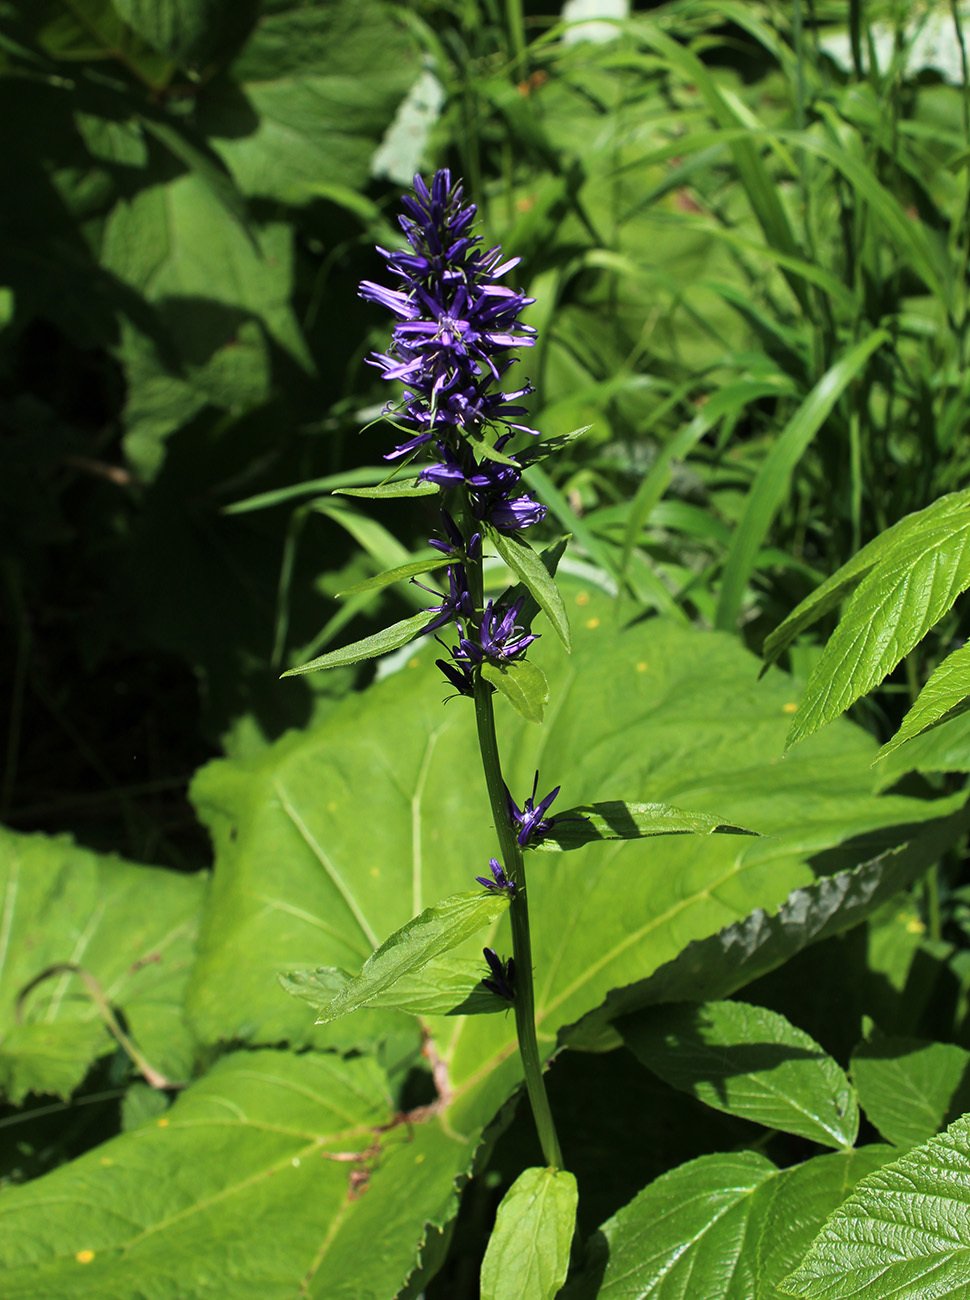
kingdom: Plantae
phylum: Tracheophyta
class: Magnoliopsida
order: Asterales
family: Campanulaceae
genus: Asyneuma
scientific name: Asyneuma campanuloides
